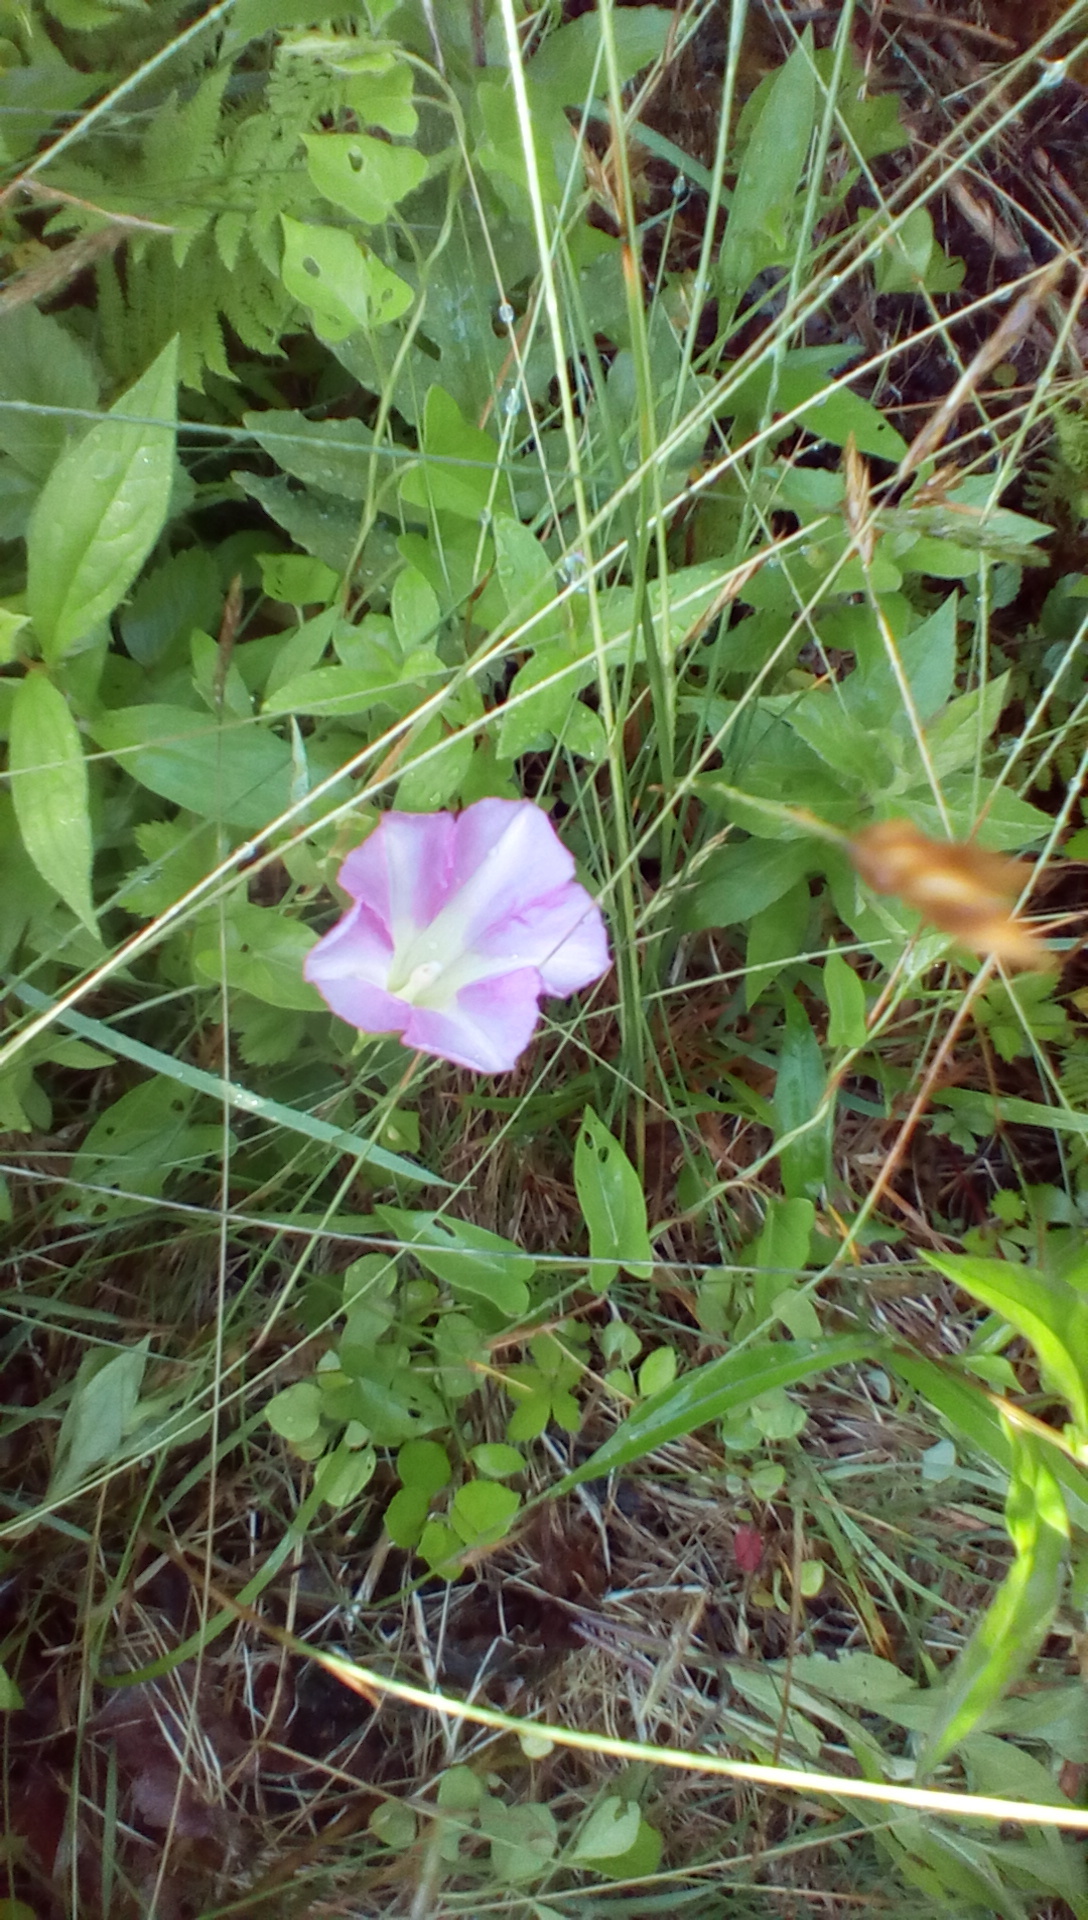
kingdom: Plantae
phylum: Tracheophyta
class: Magnoliopsida
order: Solanales
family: Convolvulaceae
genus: Calystegia
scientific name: Calystegia sepium
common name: Hedge bindweed
